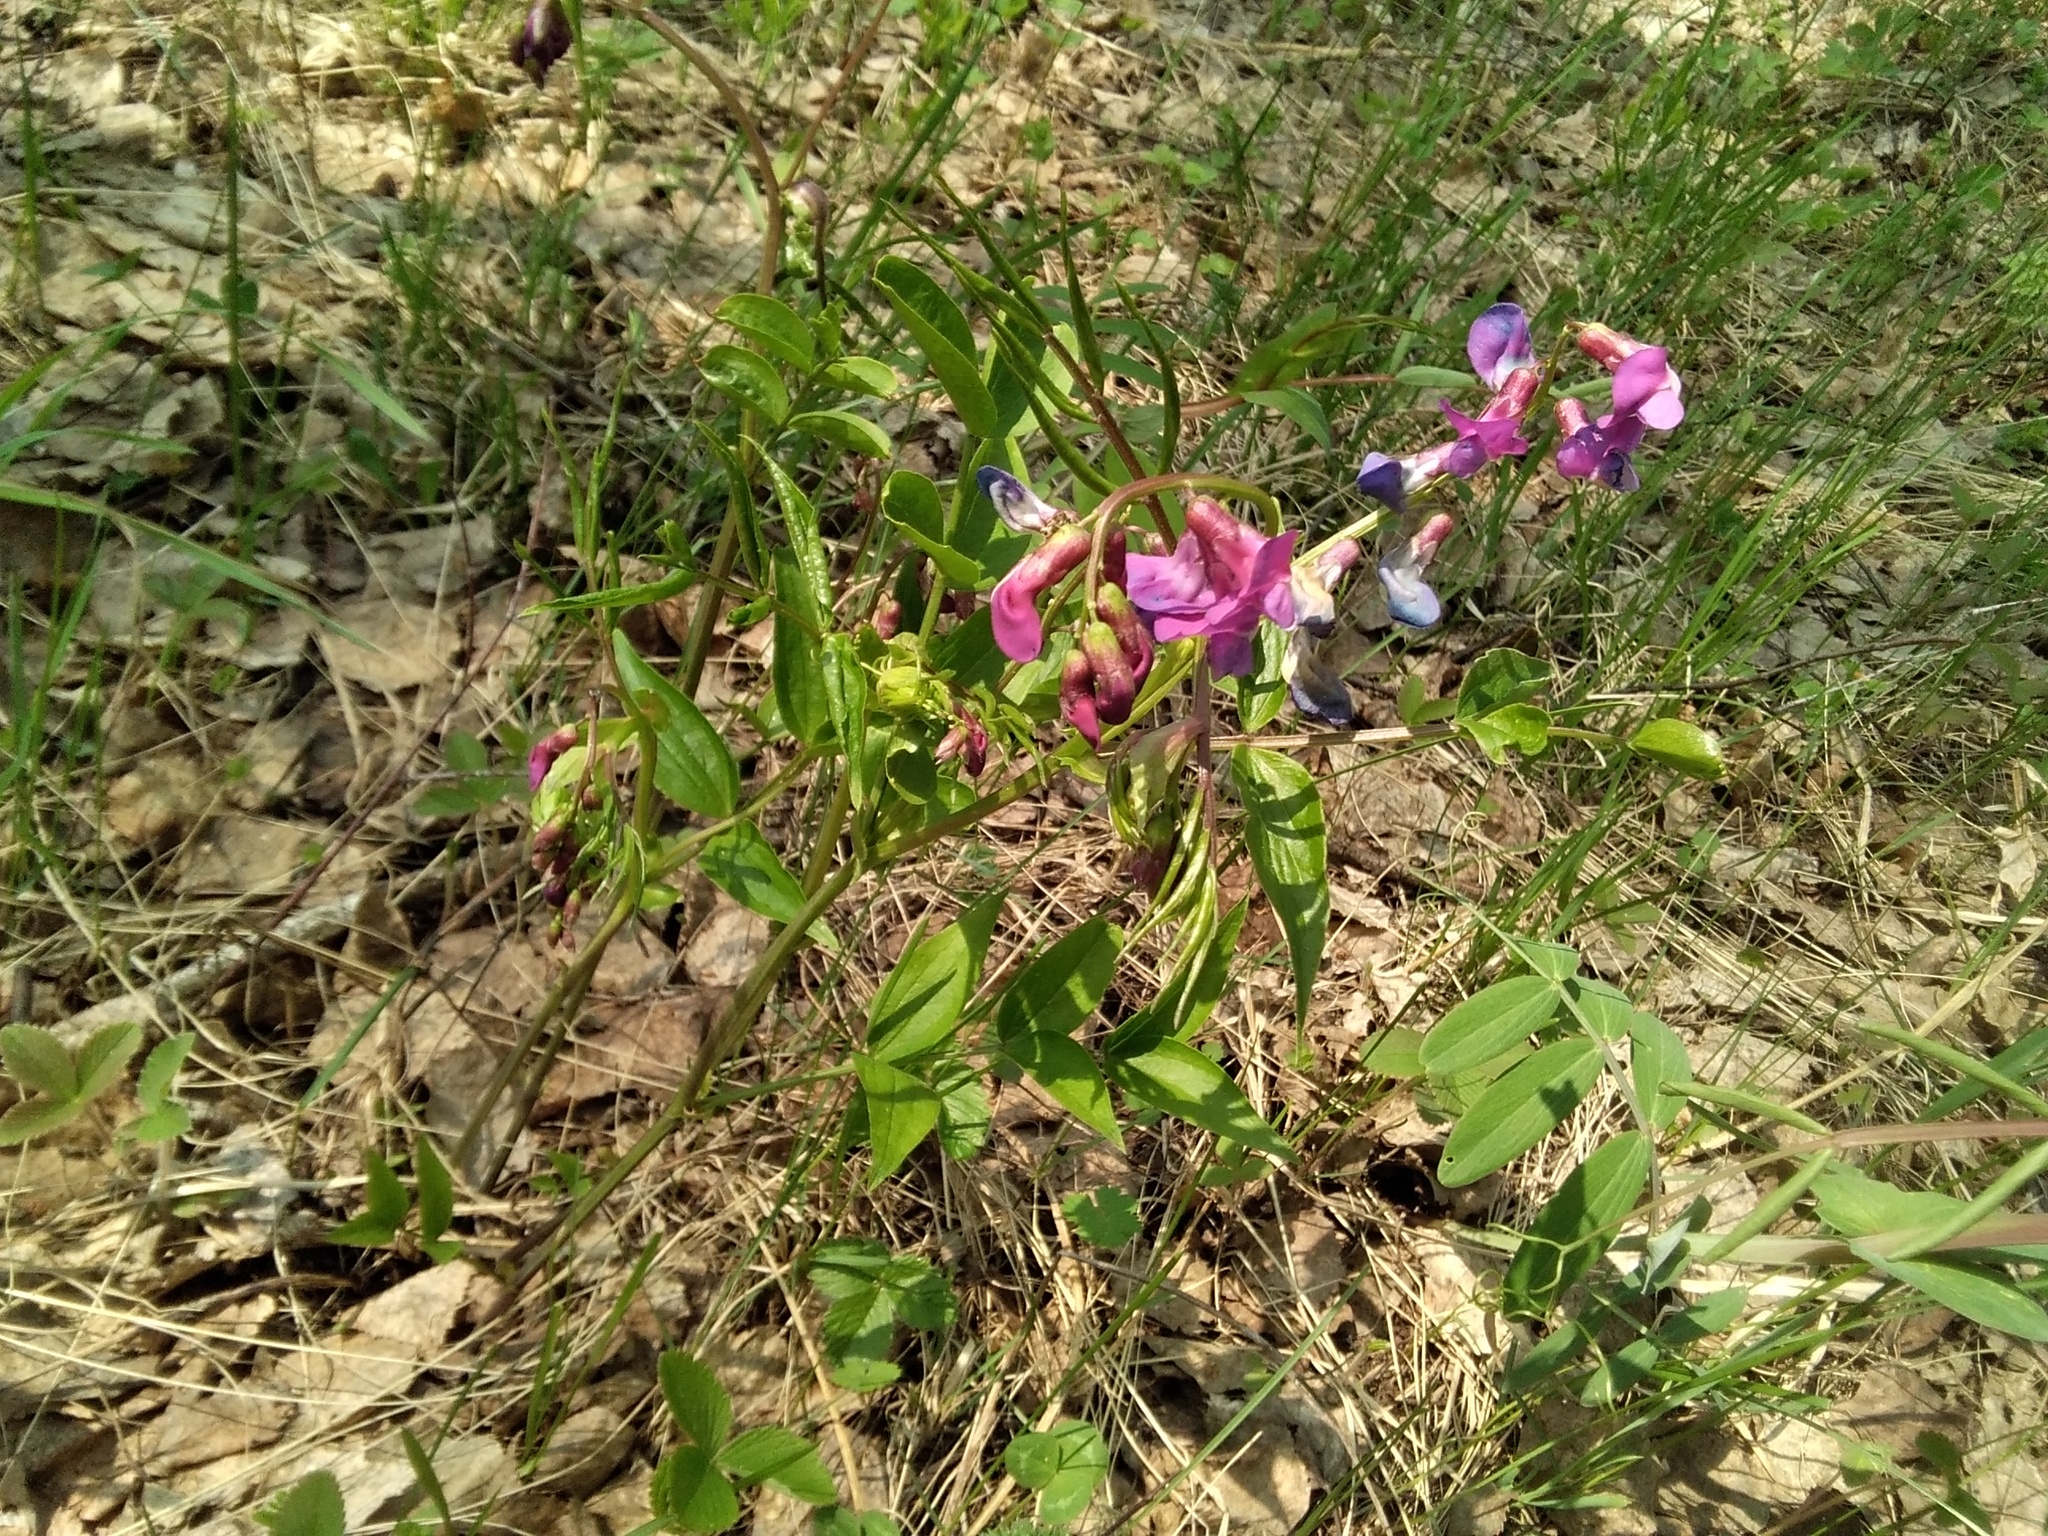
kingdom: Plantae
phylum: Tracheophyta
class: Magnoliopsida
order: Fabales
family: Fabaceae
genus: Lathyrus
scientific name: Lathyrus vernus
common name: Spring pea
